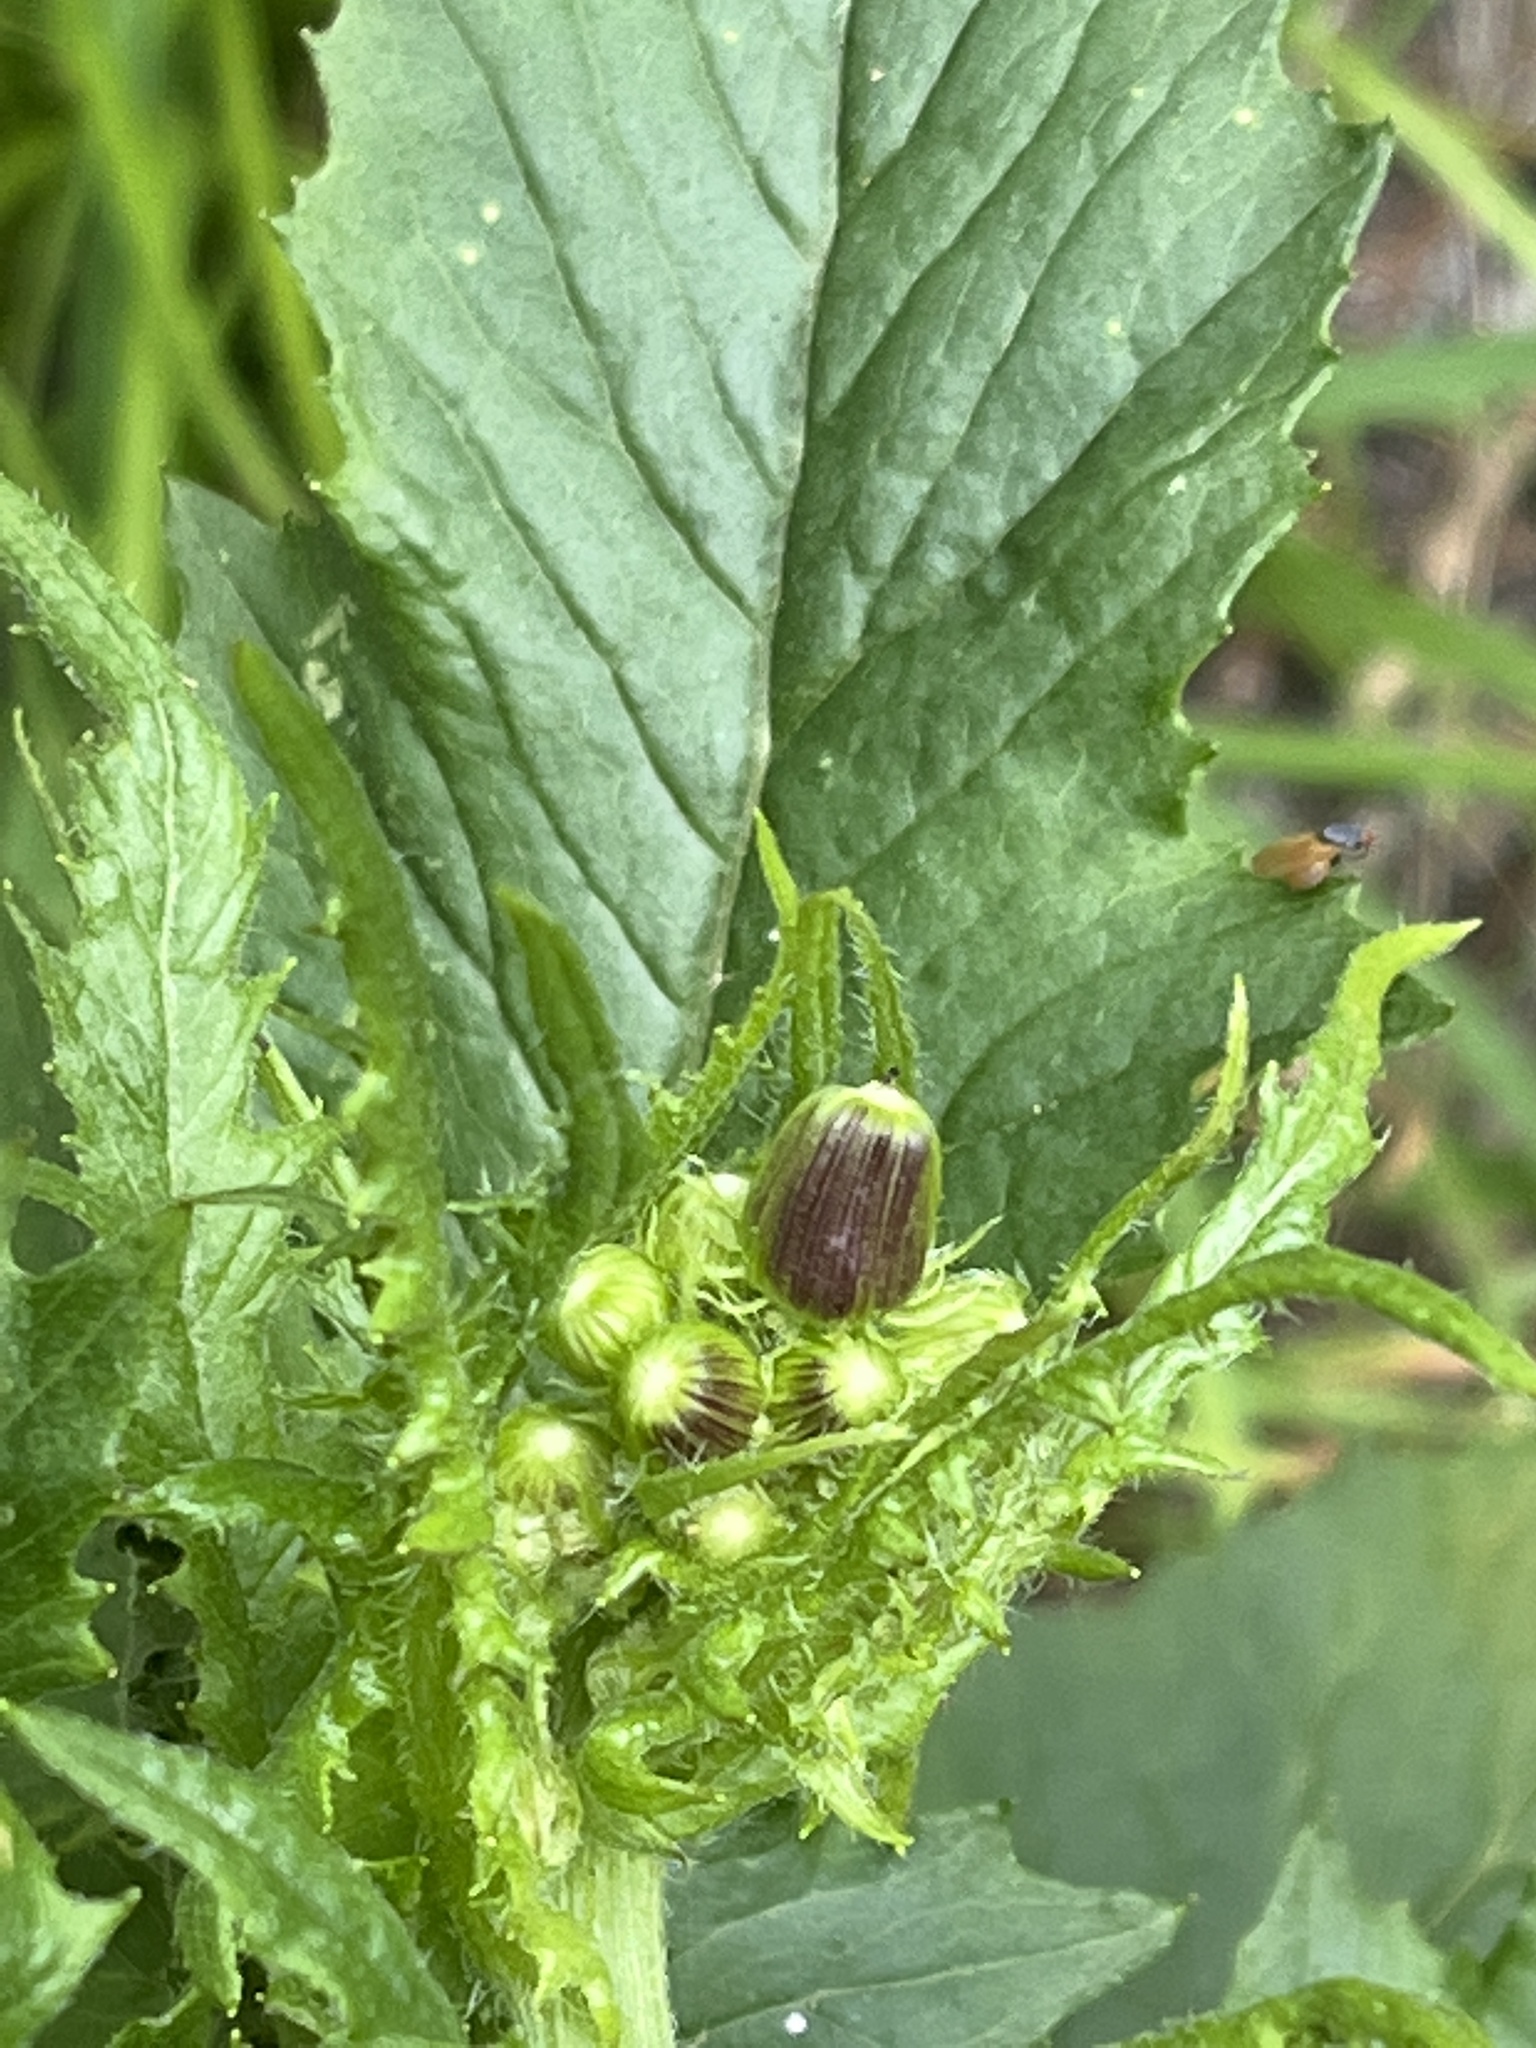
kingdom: Plantae
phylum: Tracheophyta
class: Magnoliopsida
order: Asterales
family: Asteraceae
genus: Erechtites
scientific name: Erechtites hieraciifolius
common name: American burnweed
